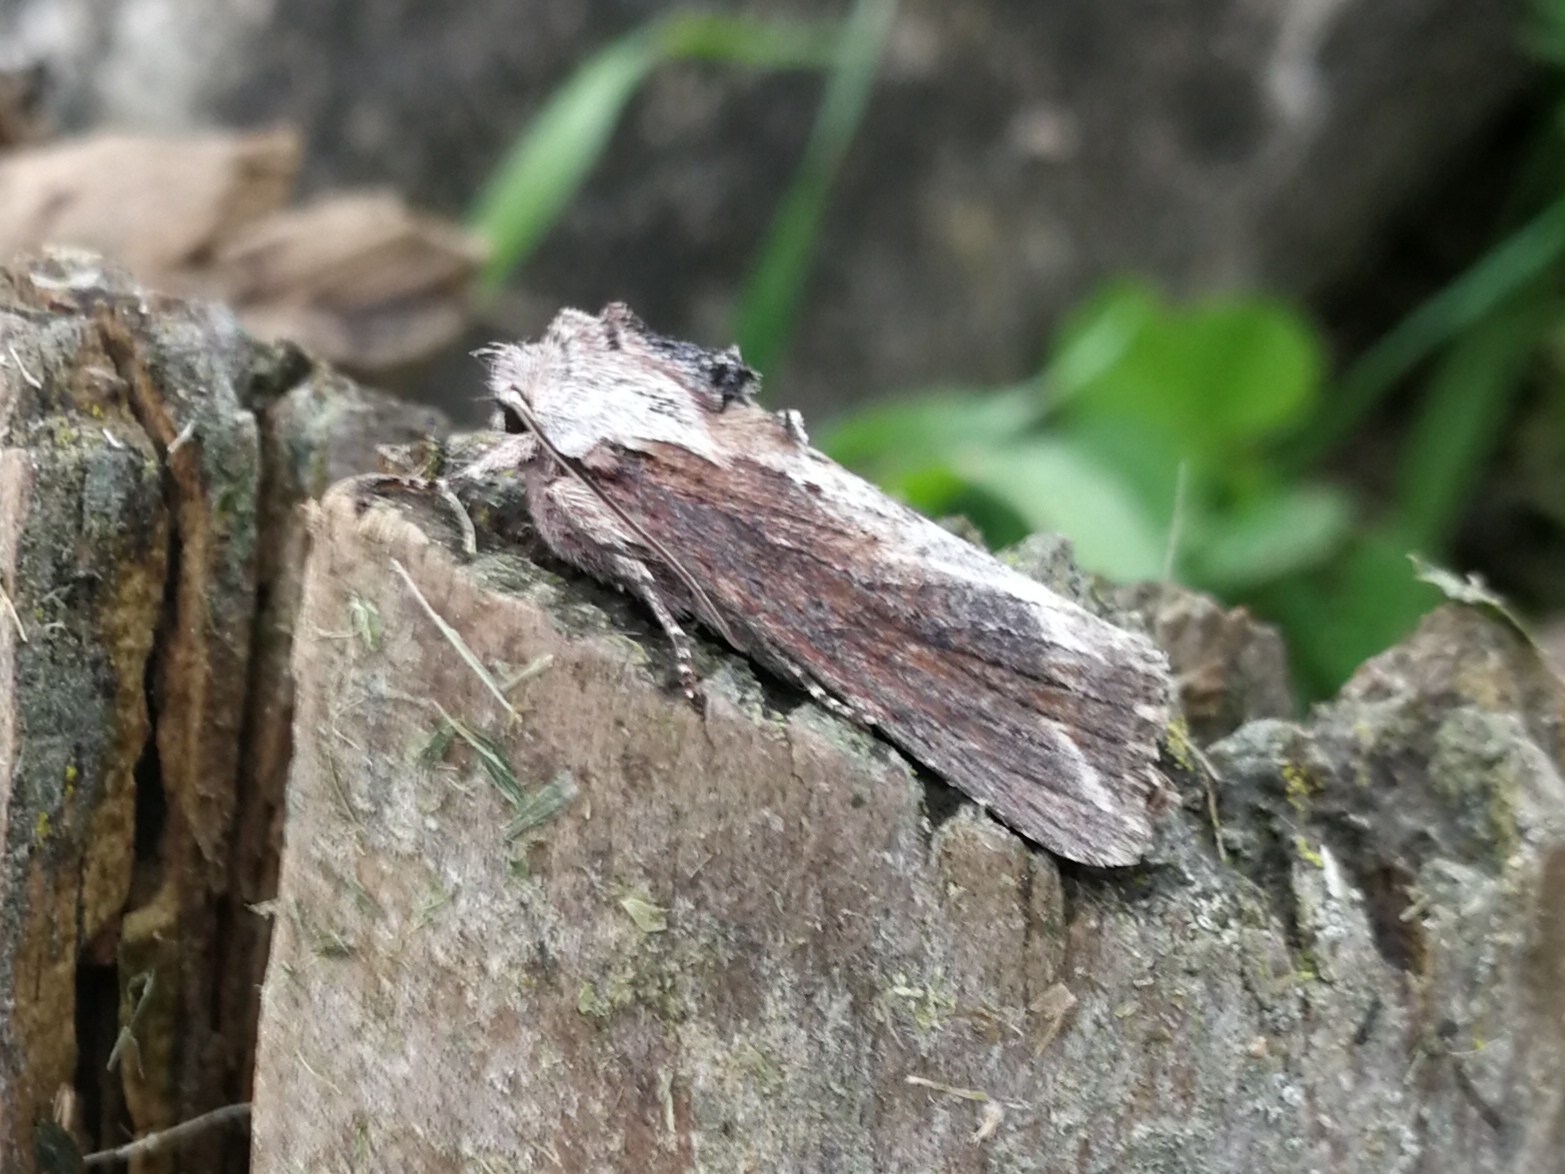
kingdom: Animalia
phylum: Arthropoda
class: Insecta
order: Lepidoptera
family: Noctuidae
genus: Egira
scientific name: Egira conspicillaris
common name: Silver cloud
